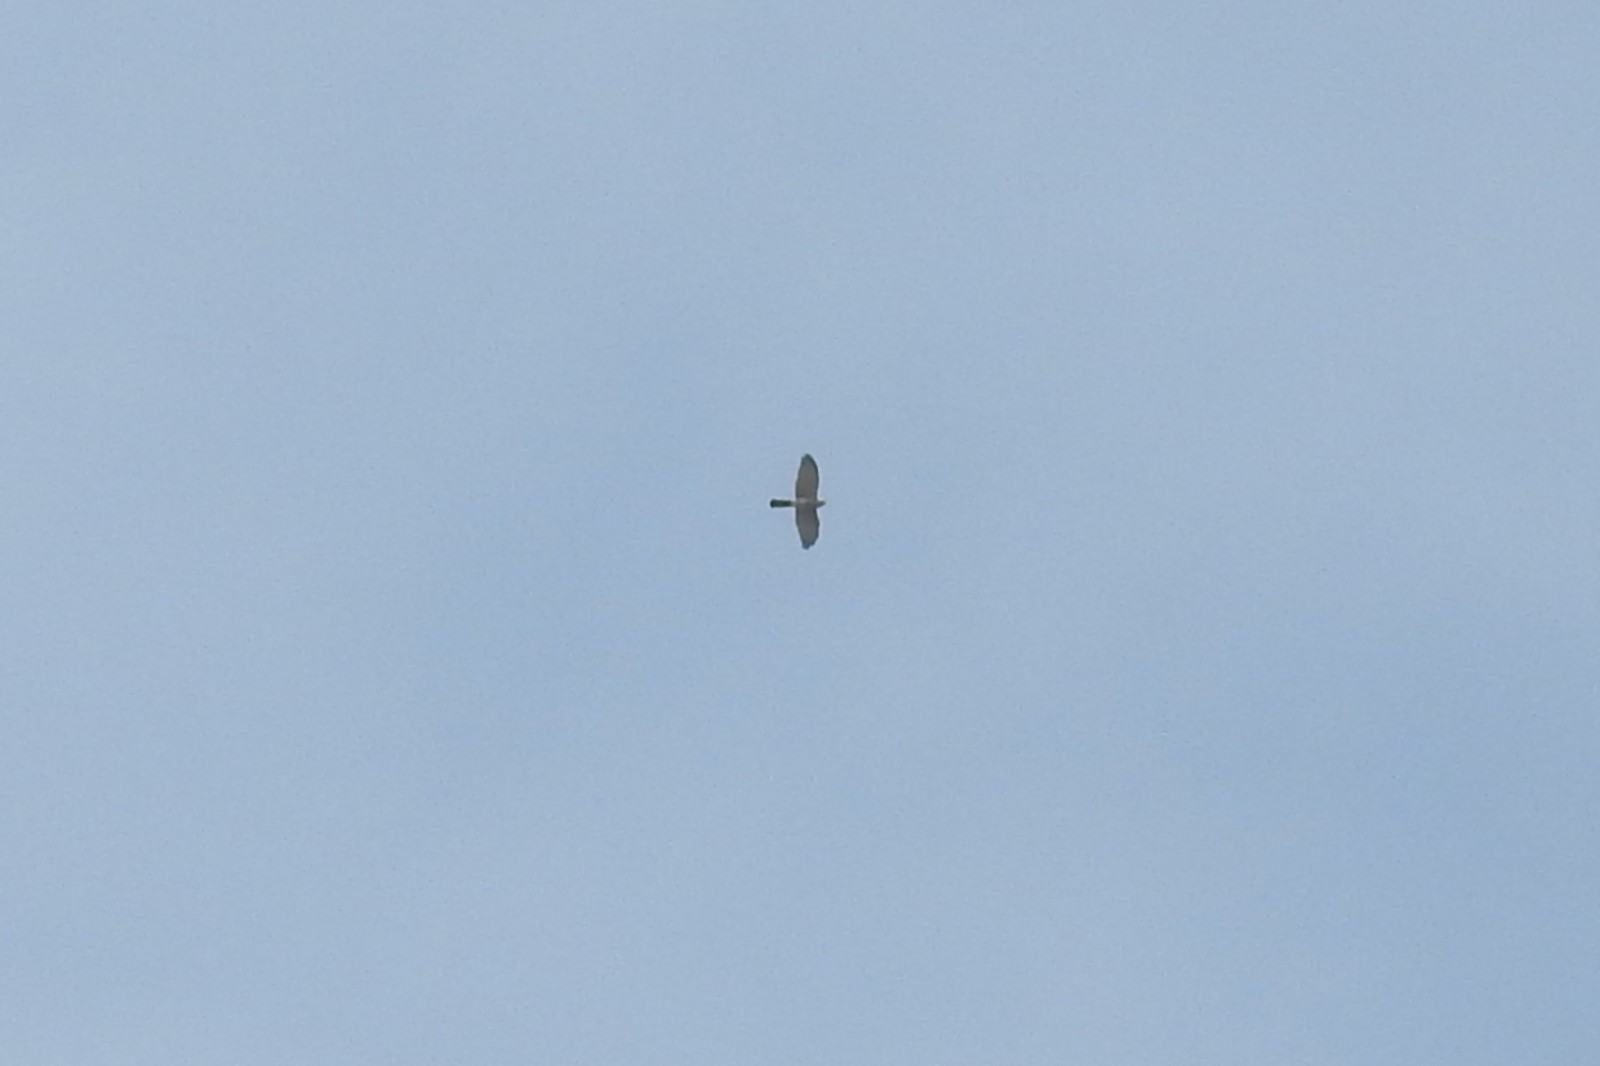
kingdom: Animalia
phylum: Chordata
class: Aves
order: Accipitriformes
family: Accipitridae
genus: Accipiter
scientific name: Accipiter badius
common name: Shikra
